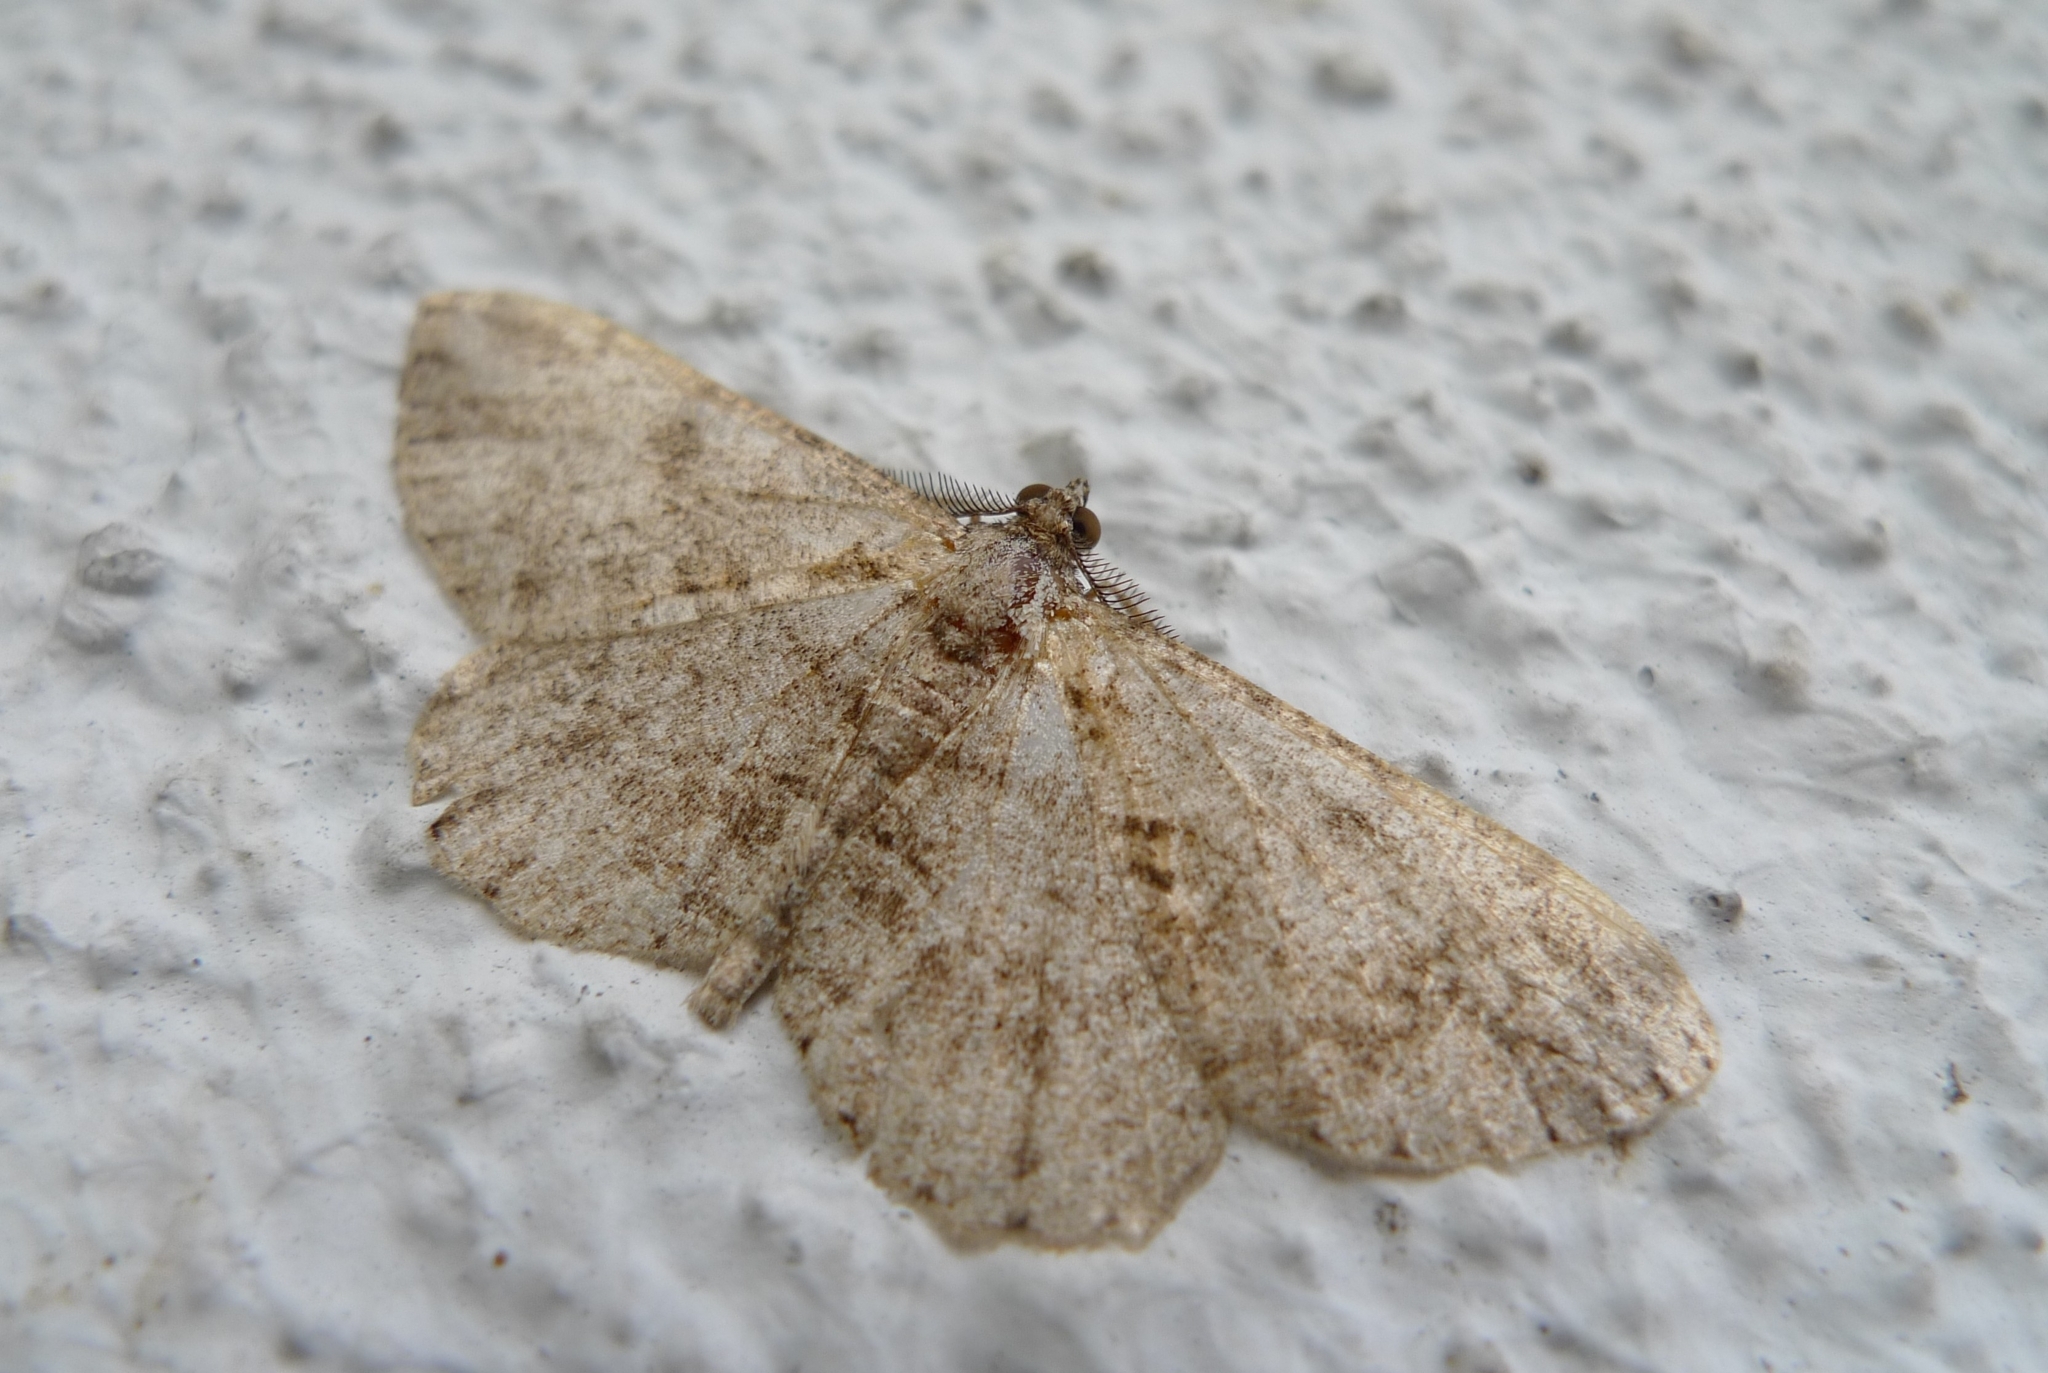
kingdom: Animalia
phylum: Arthropoda
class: Insecta
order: Lepidoptera
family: Geometridae
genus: Peribatodes
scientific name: Peribatodes rhomboidaria
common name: Willow beauty
